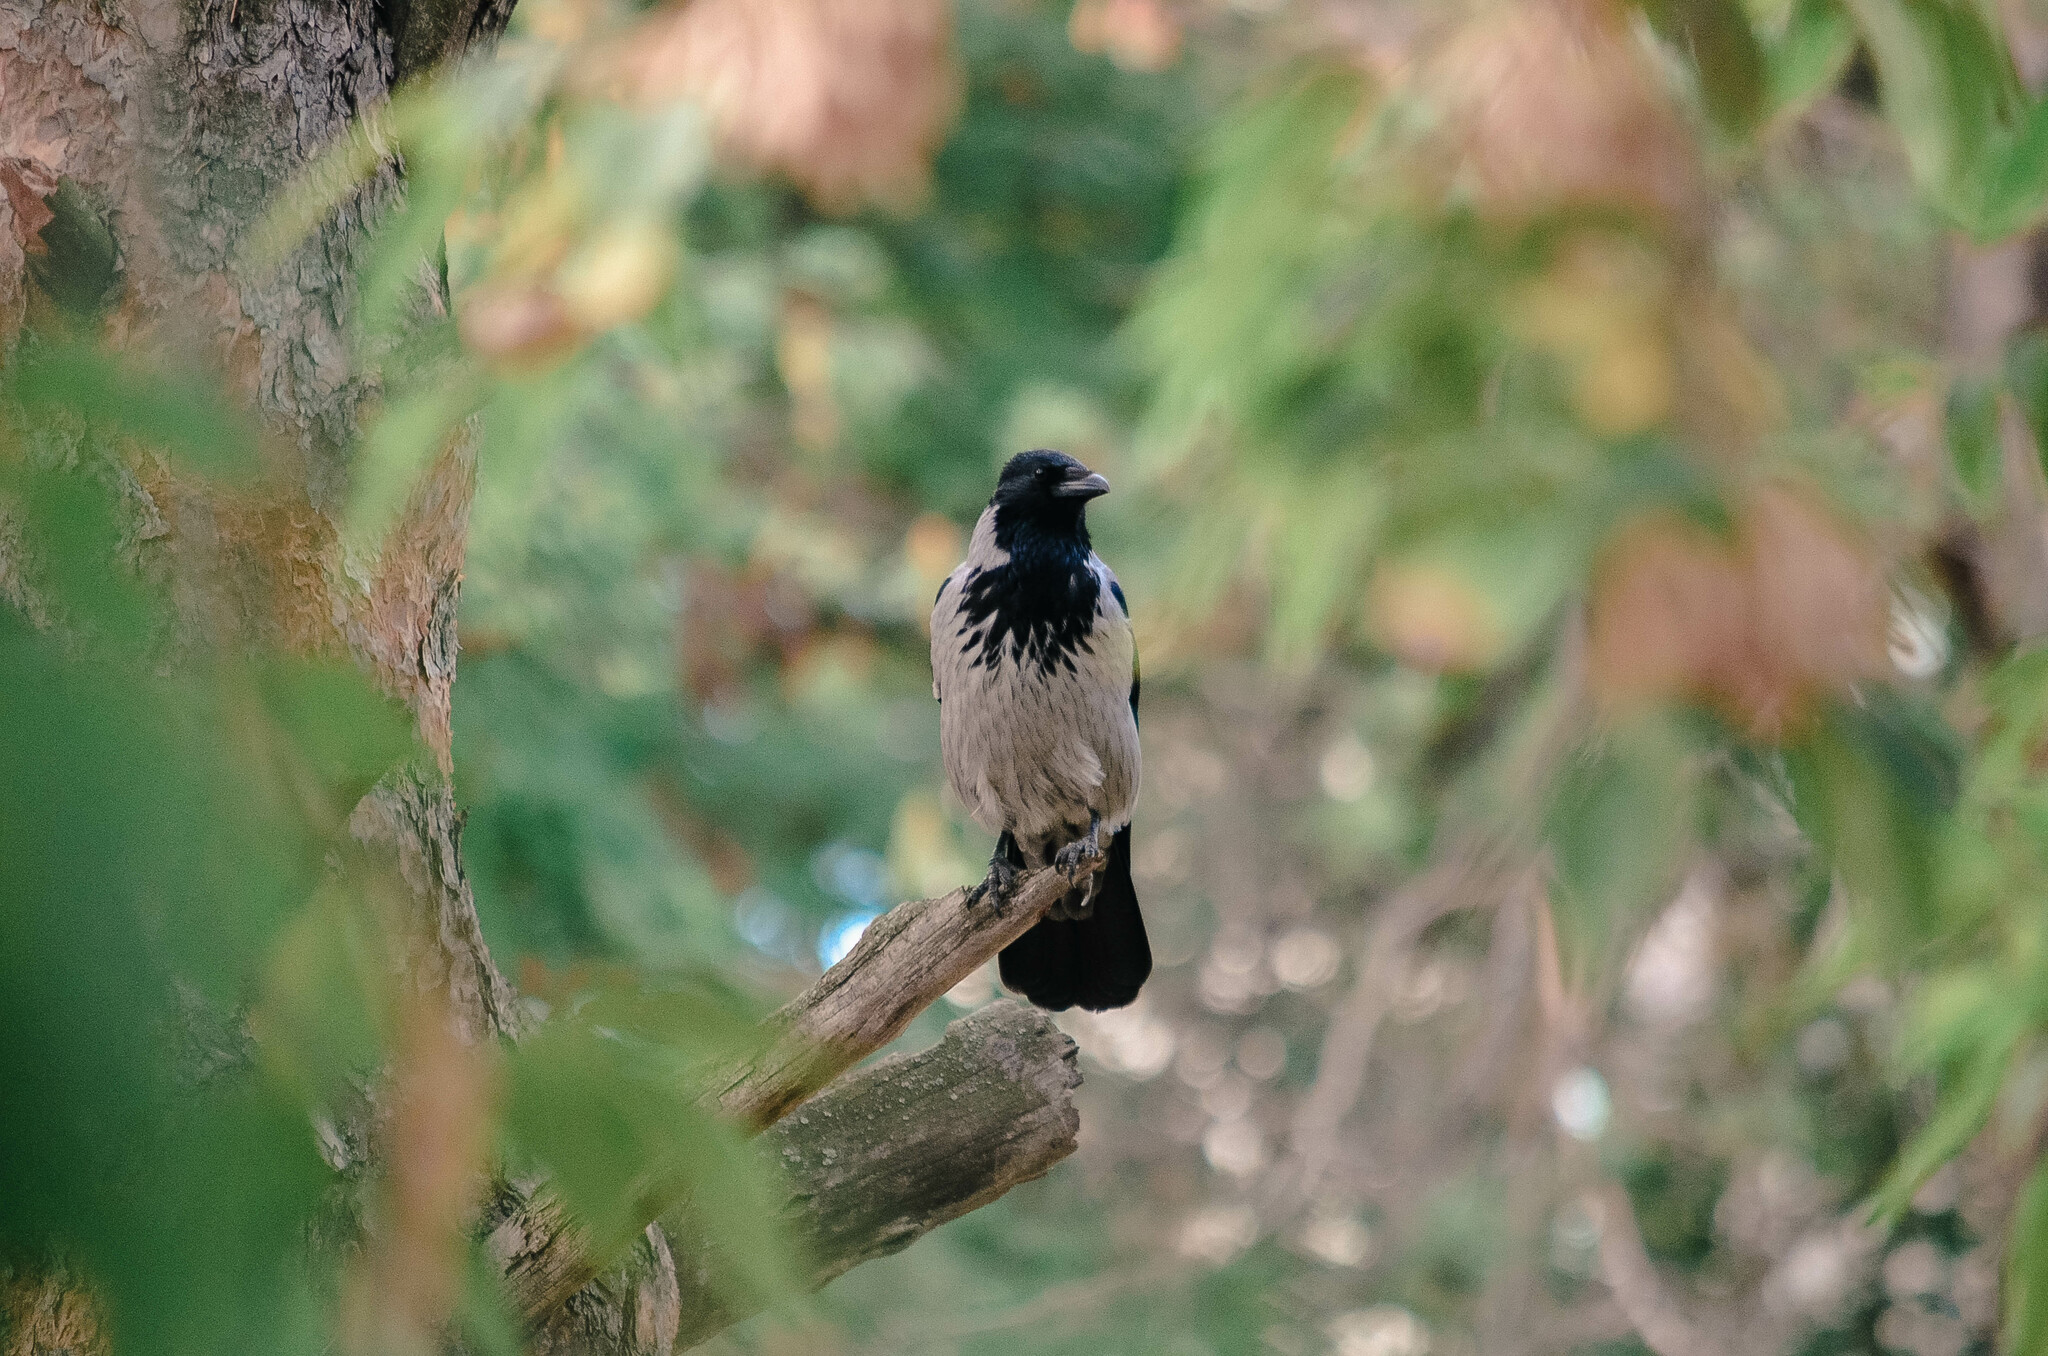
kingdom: Animalia
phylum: Chordata
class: Aves
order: Passeriformes
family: Corvidae
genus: Corvus
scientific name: Corvus cornix
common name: Hooded crow
